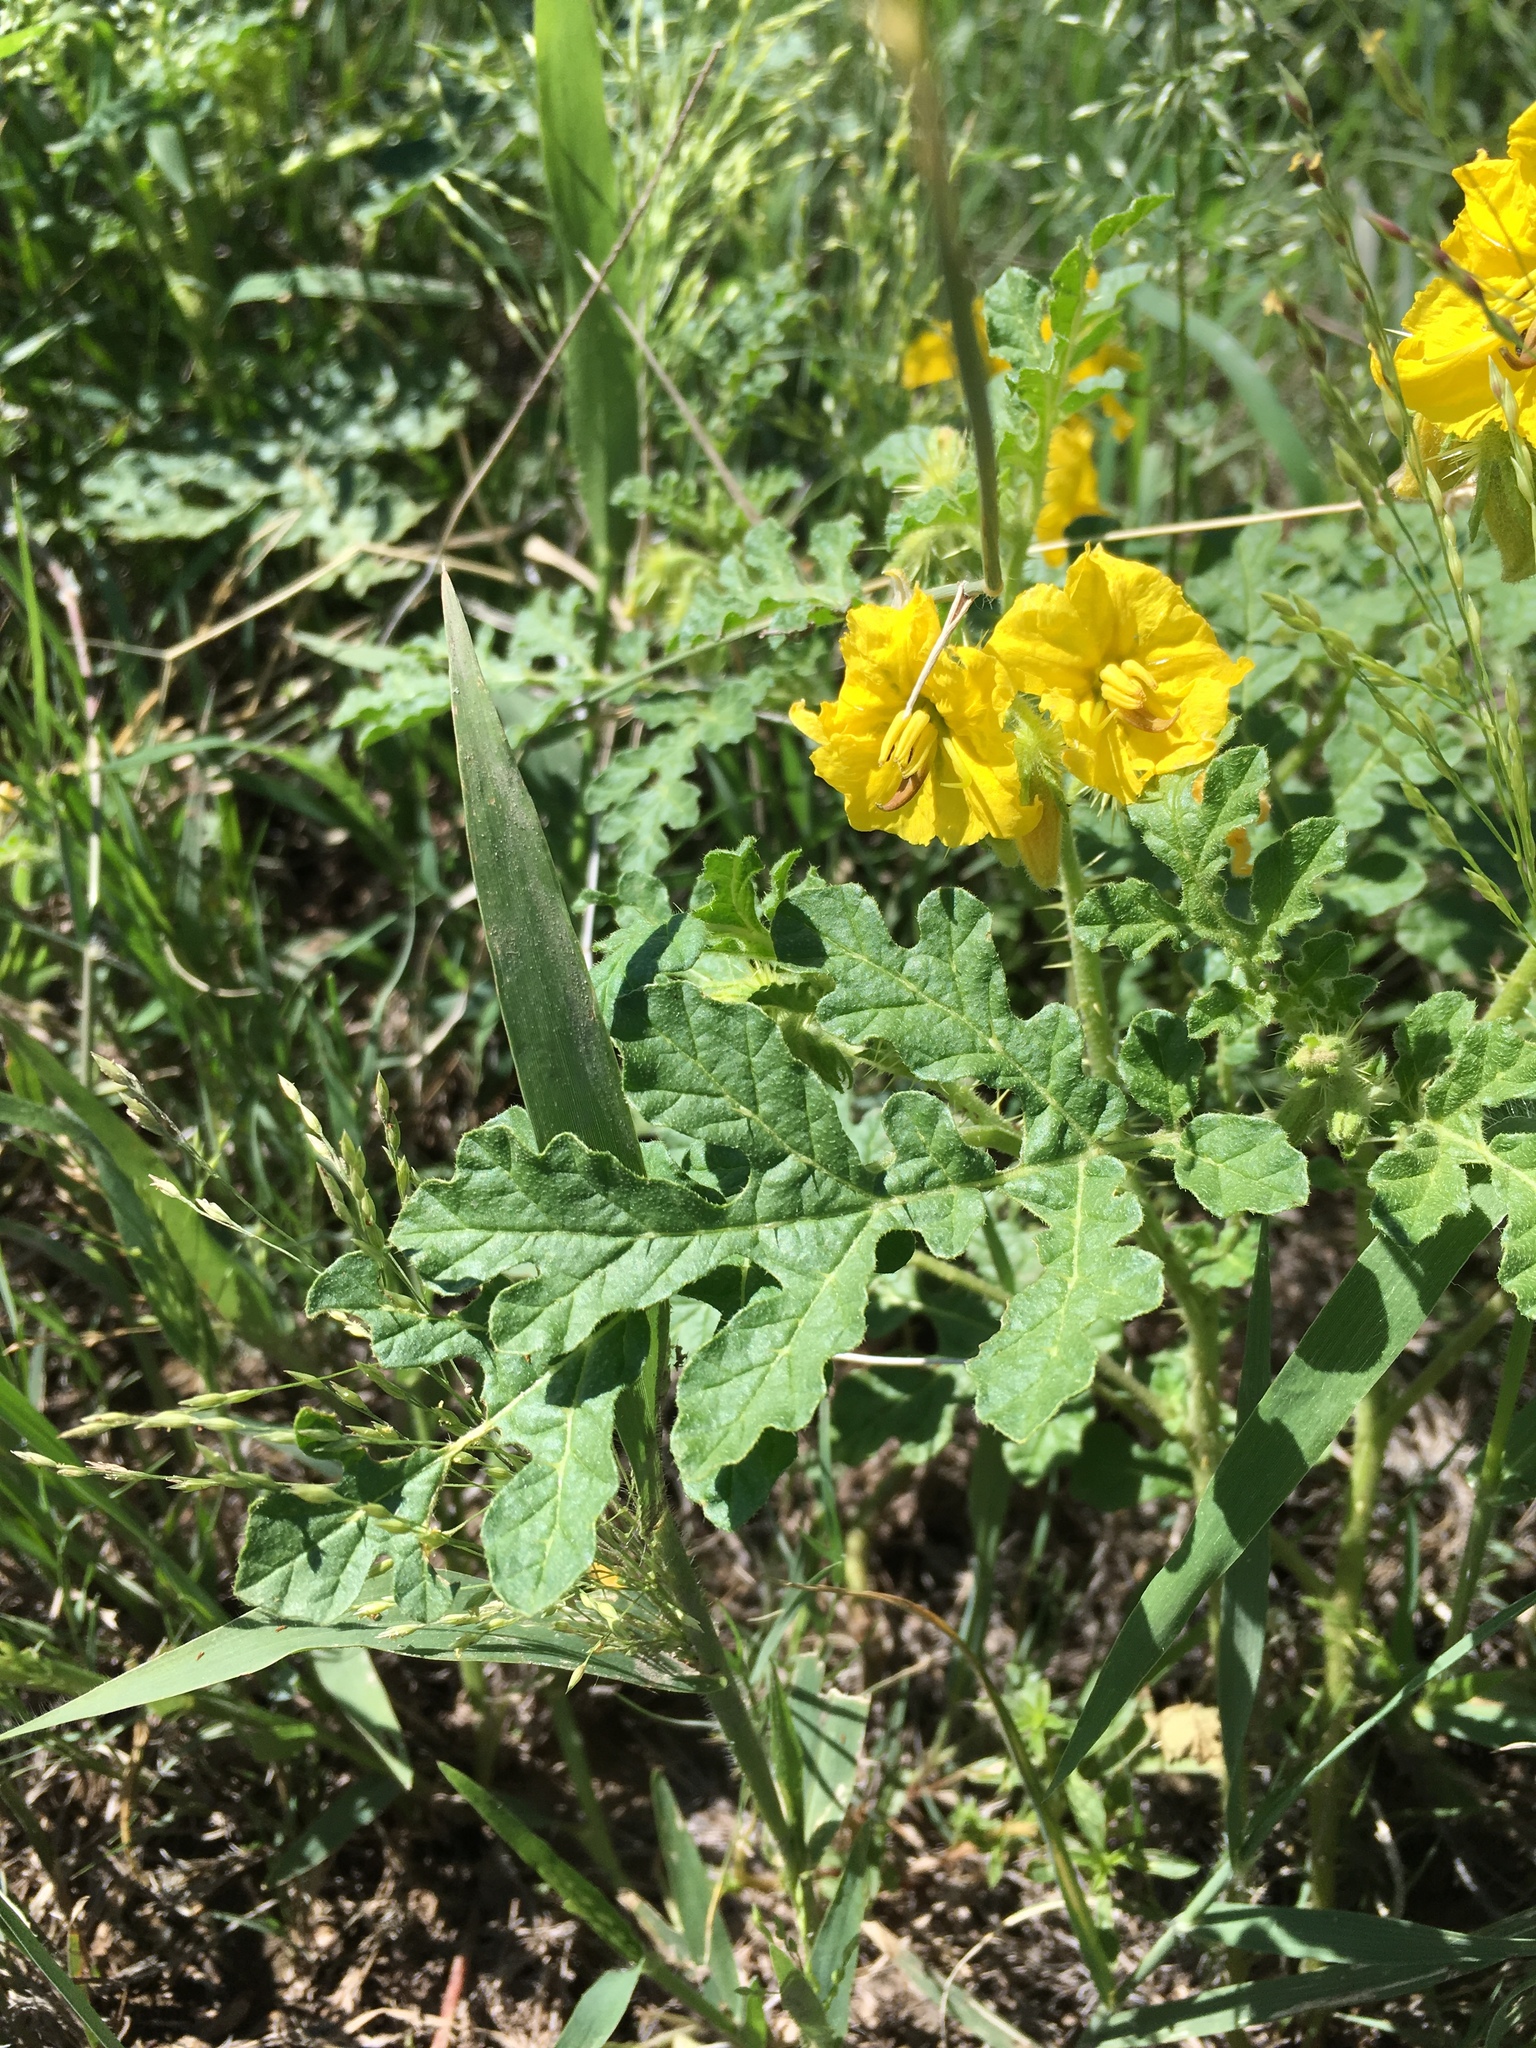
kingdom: Plantae
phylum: Tracheophyta
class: Magnoliopsida
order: Solanales
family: Solanaceae
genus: Solanum
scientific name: Solanum angustifolium
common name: Buffalobur nightshade
